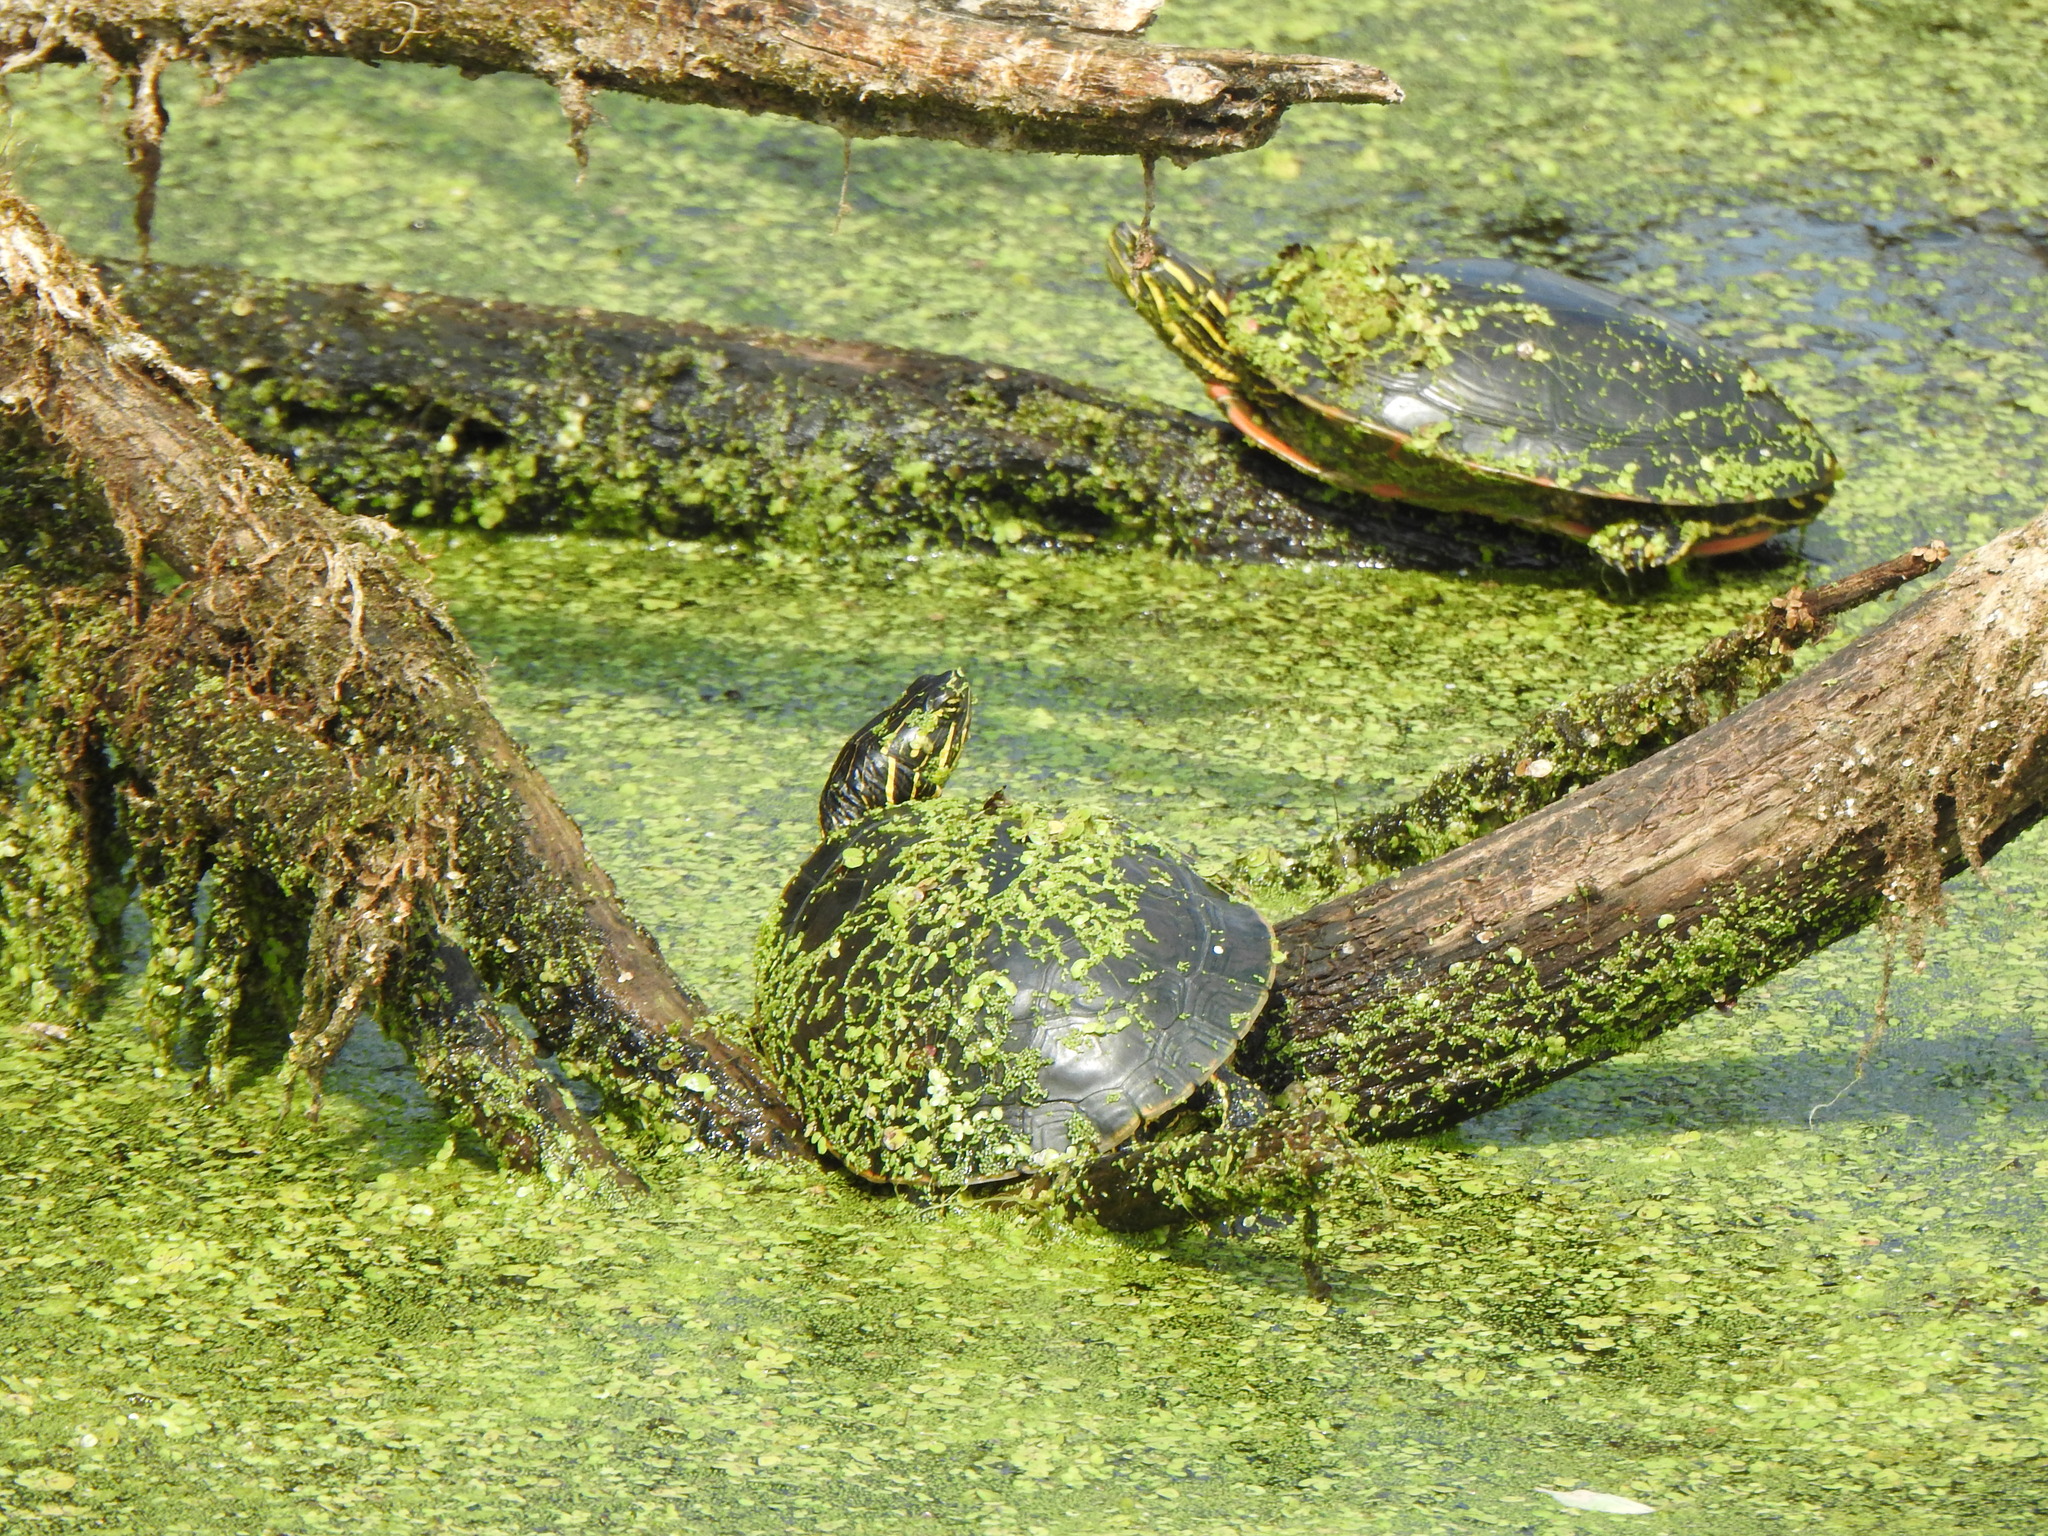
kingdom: Animalia
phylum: Chordata
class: Testudines
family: Emydidae
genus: Chrysemys
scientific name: Chrysemys picta
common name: Painted turtle
